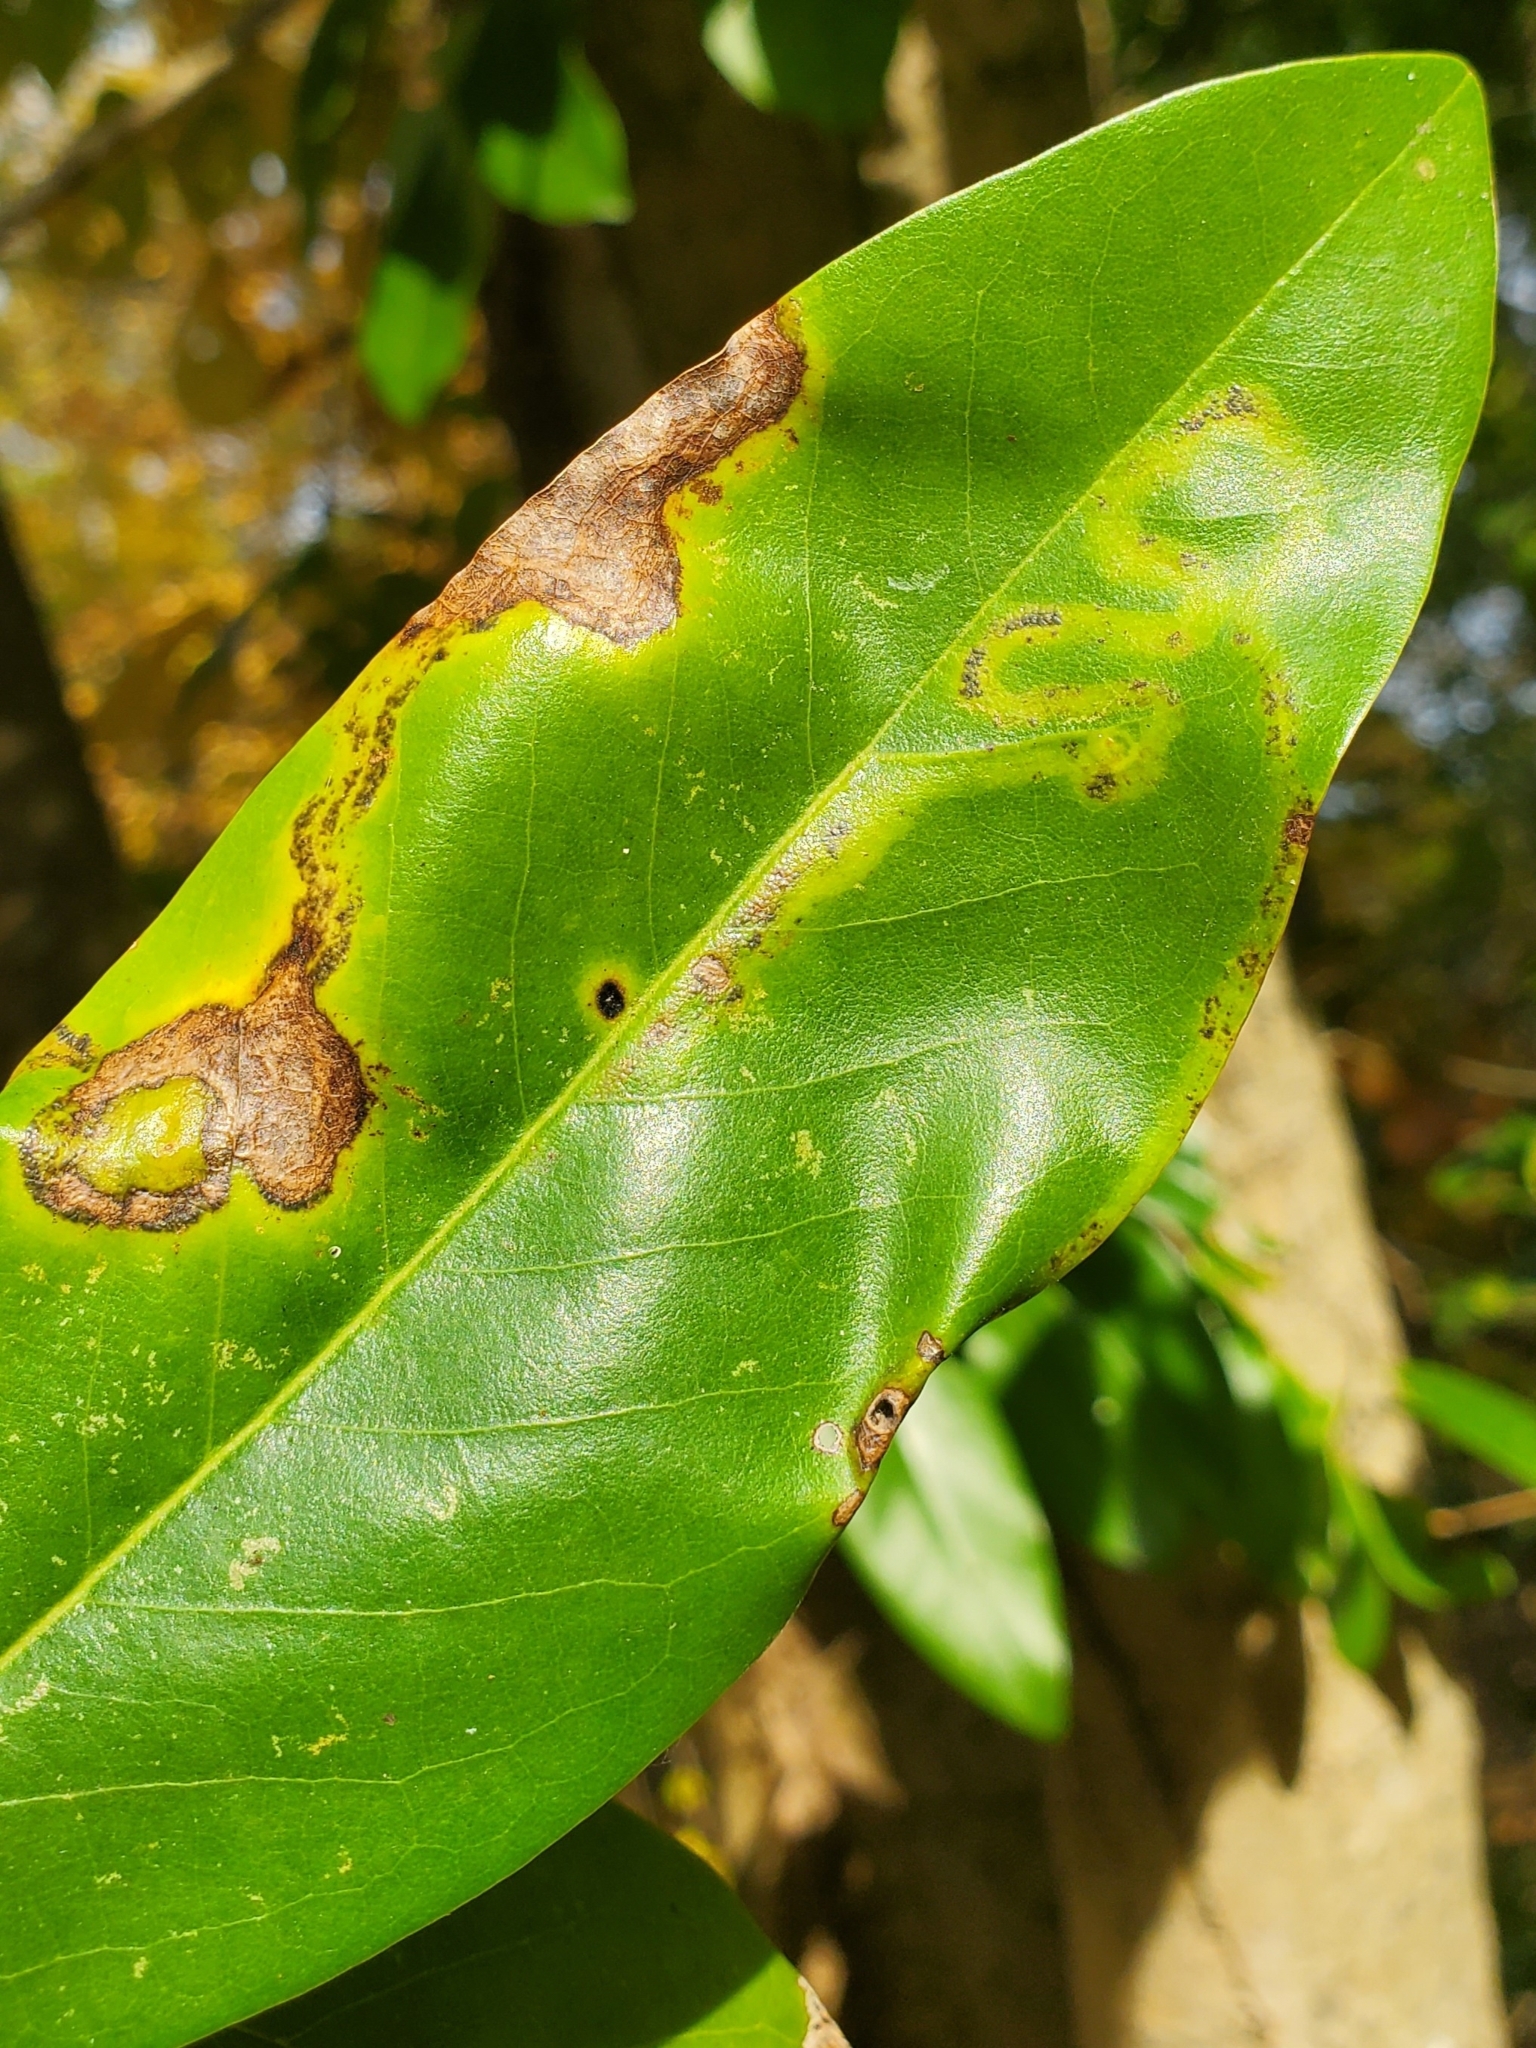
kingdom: Animalia
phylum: Arthropoda
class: Insecta
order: Lepidoptera
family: Gracillariidae
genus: Phyllocnistis
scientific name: Phyllocnistis liriodendronella
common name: Tulip tree leaf miner
